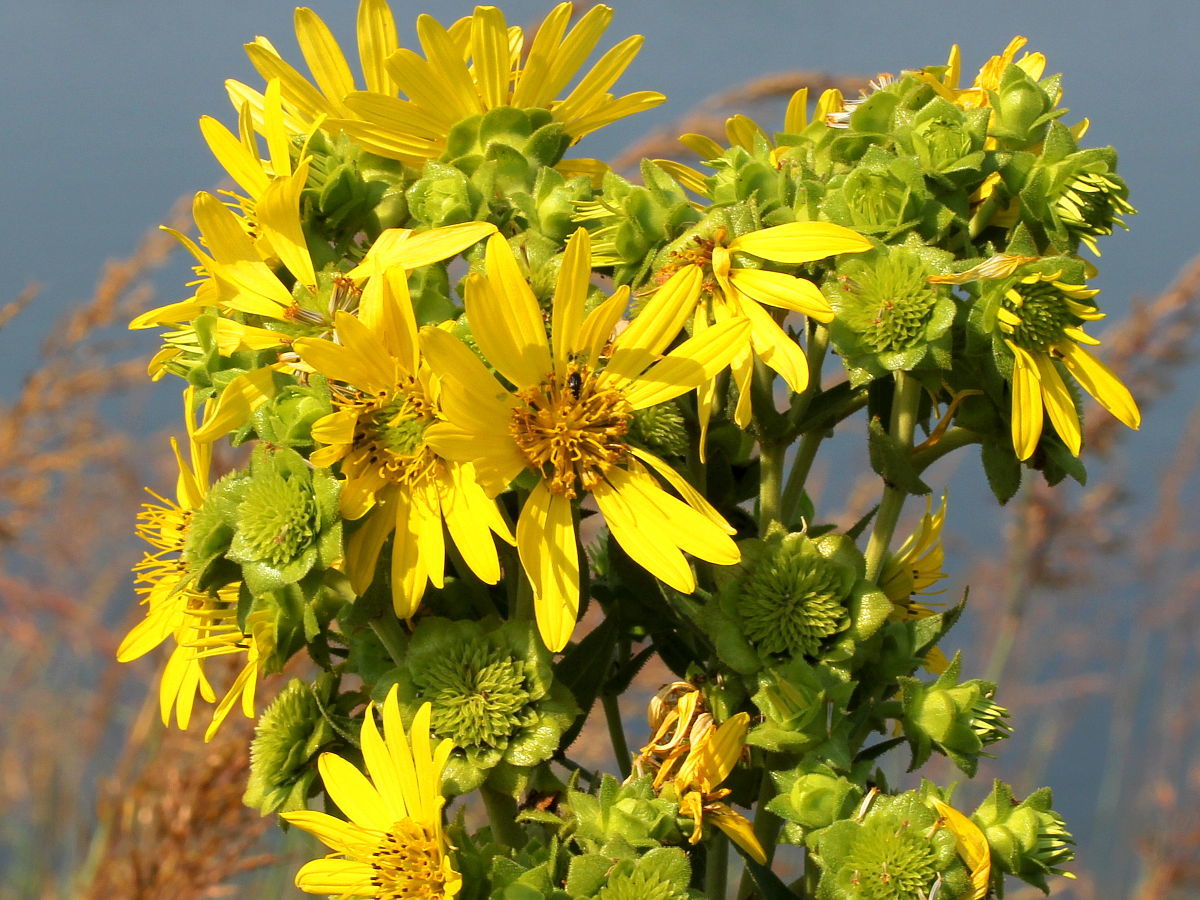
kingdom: Plantae
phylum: Tracheophyta
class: Magnoliopsida
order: Asterales
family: Asteraceae
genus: Silphium
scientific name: Silphium integrifolium
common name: Whole-leaf rosinweed
